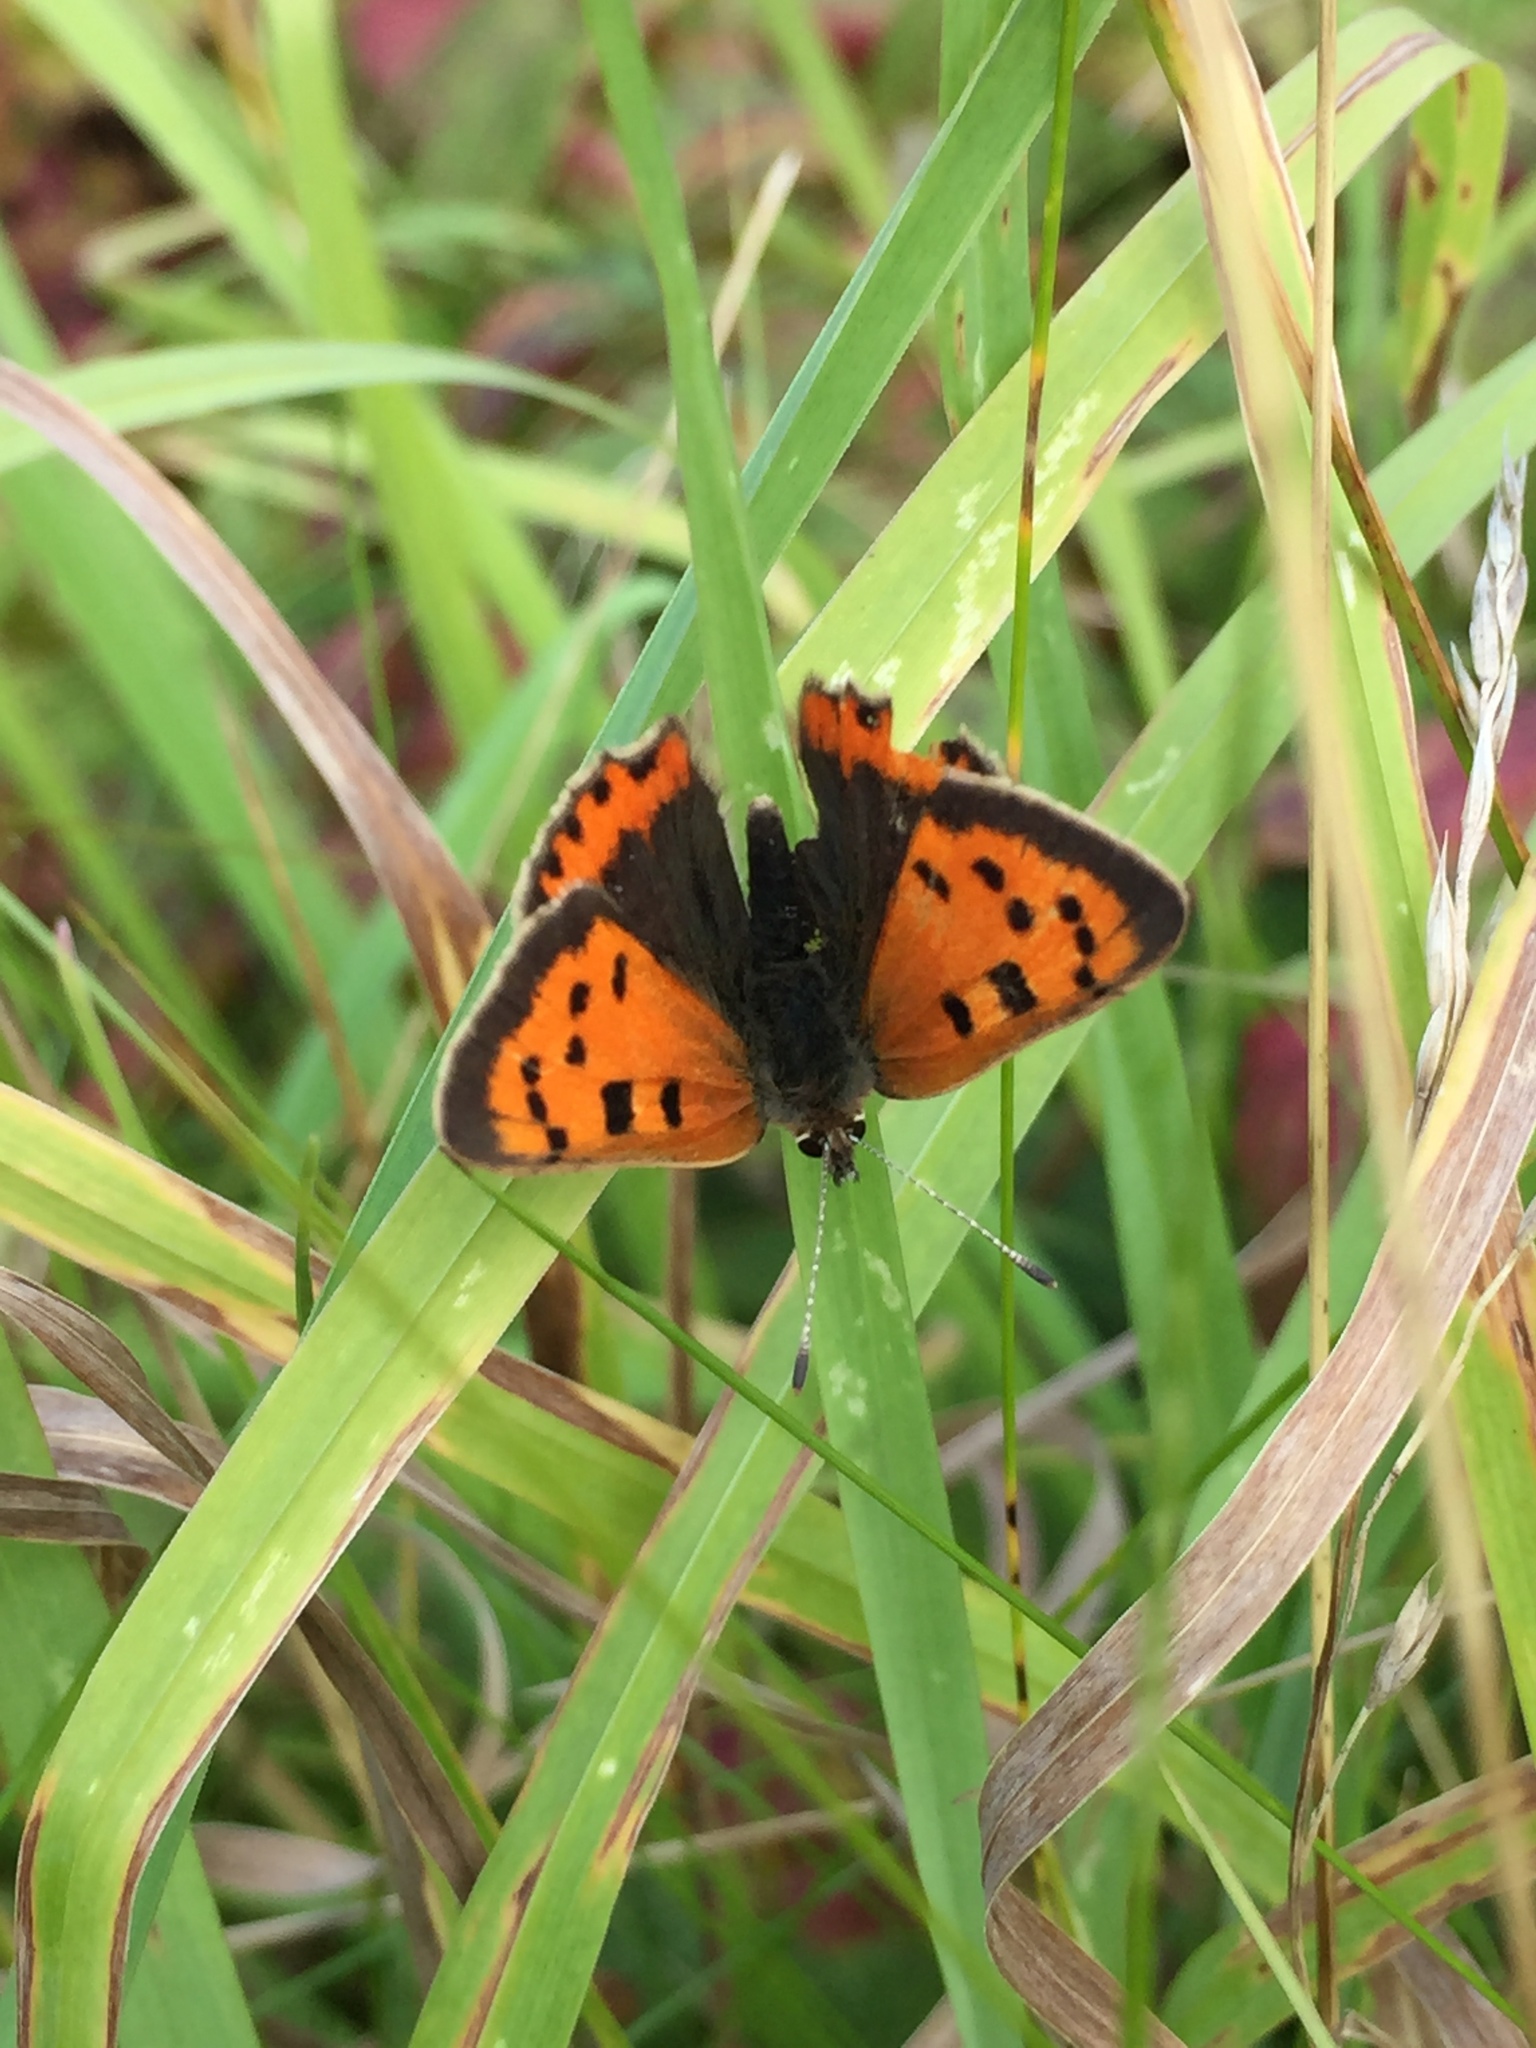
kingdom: Animalia
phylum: Arthropoda
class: Insecta
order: Lepidoptera
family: Lycaenidae
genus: Lycaena
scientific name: Lycaena phlaeas
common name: Small copper
